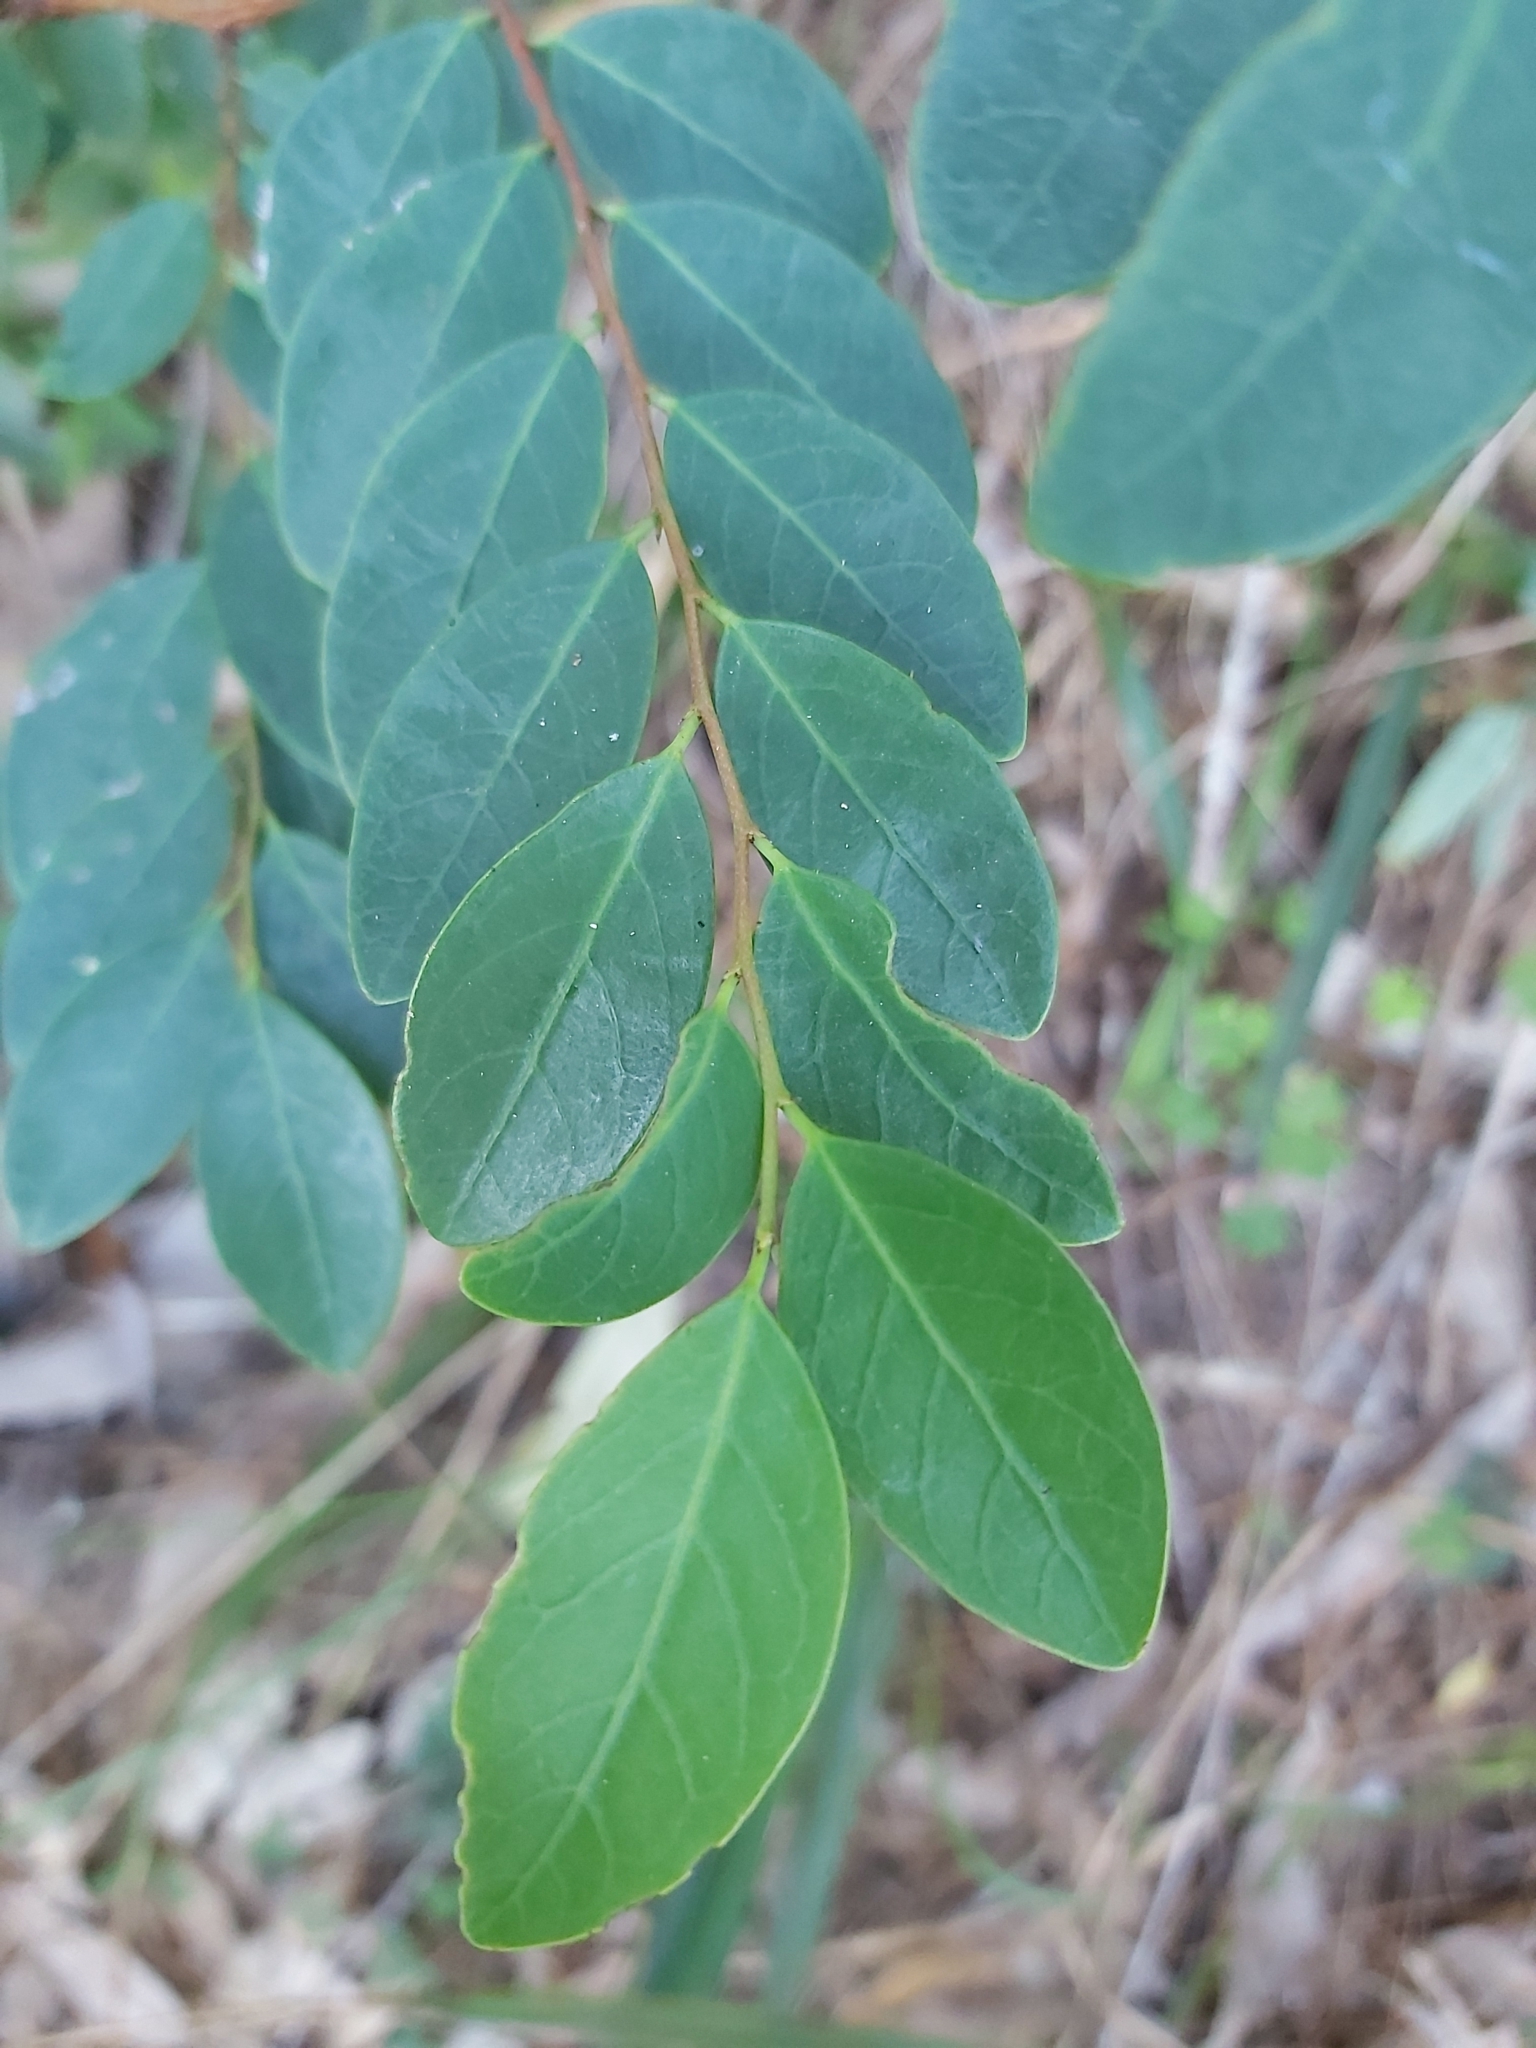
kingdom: Plantae
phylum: Tracheophyta
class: Magnoliopsida
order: Malpighiales
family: Phyllanthaceae
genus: Breynia
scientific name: Breynia oblongifolia
